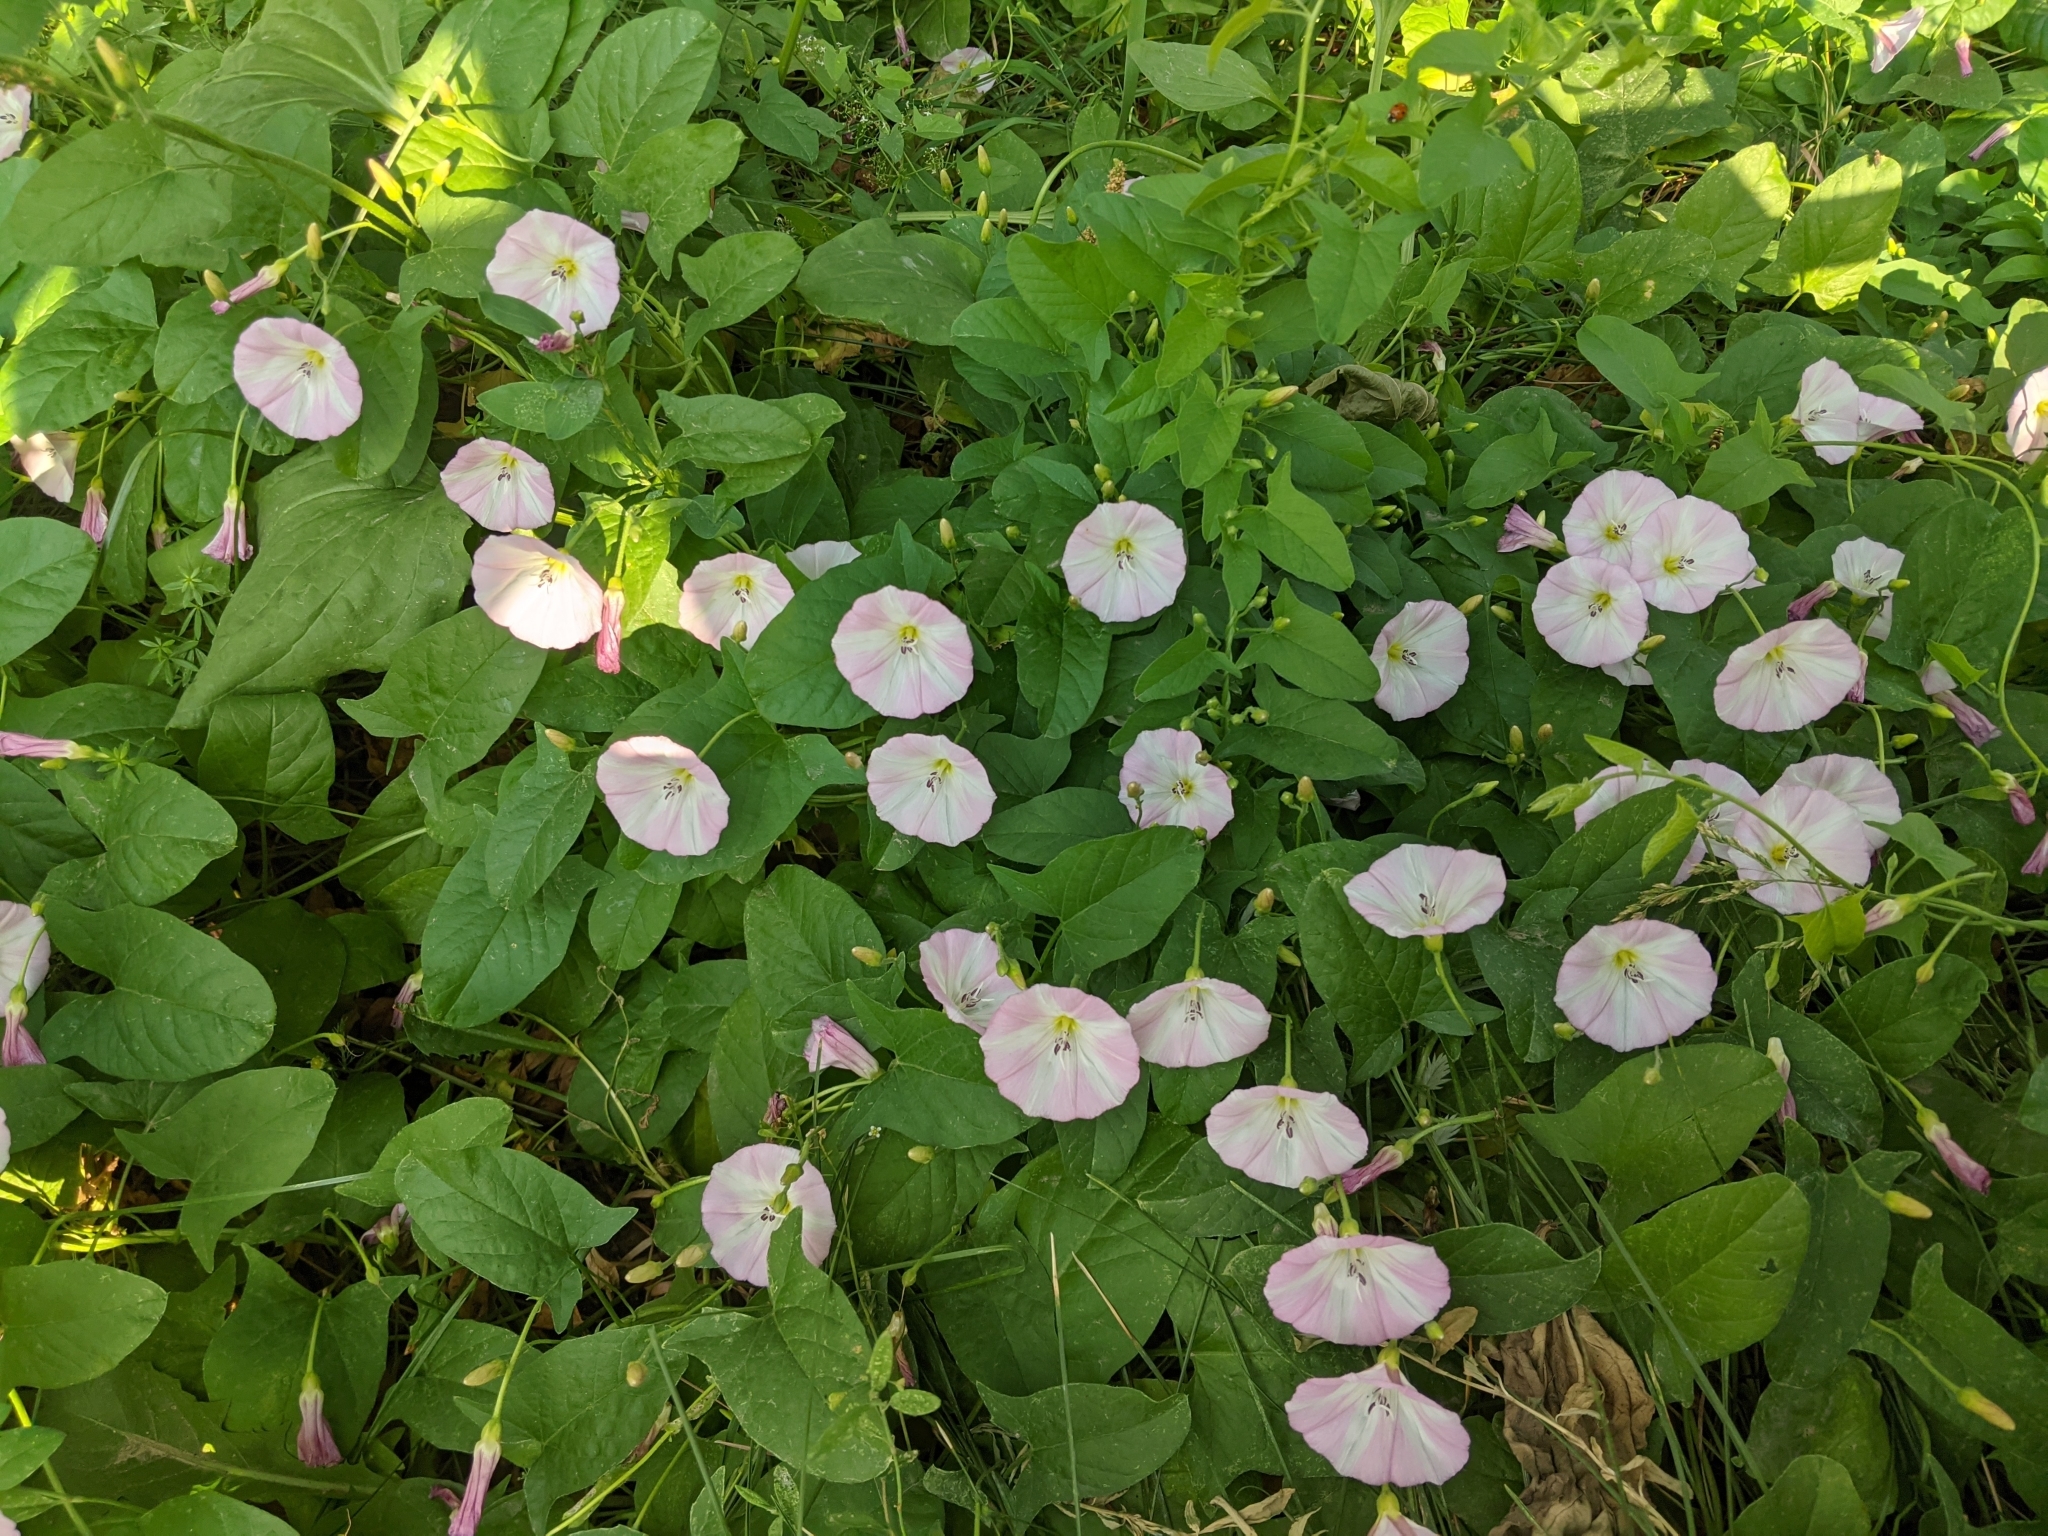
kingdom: Plantae
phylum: Tracheophyta
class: Magnoliopsida
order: Solanales
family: Convolvulaceae
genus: Convolvulus
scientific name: Convolvulus arvensis
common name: Field bindweed
